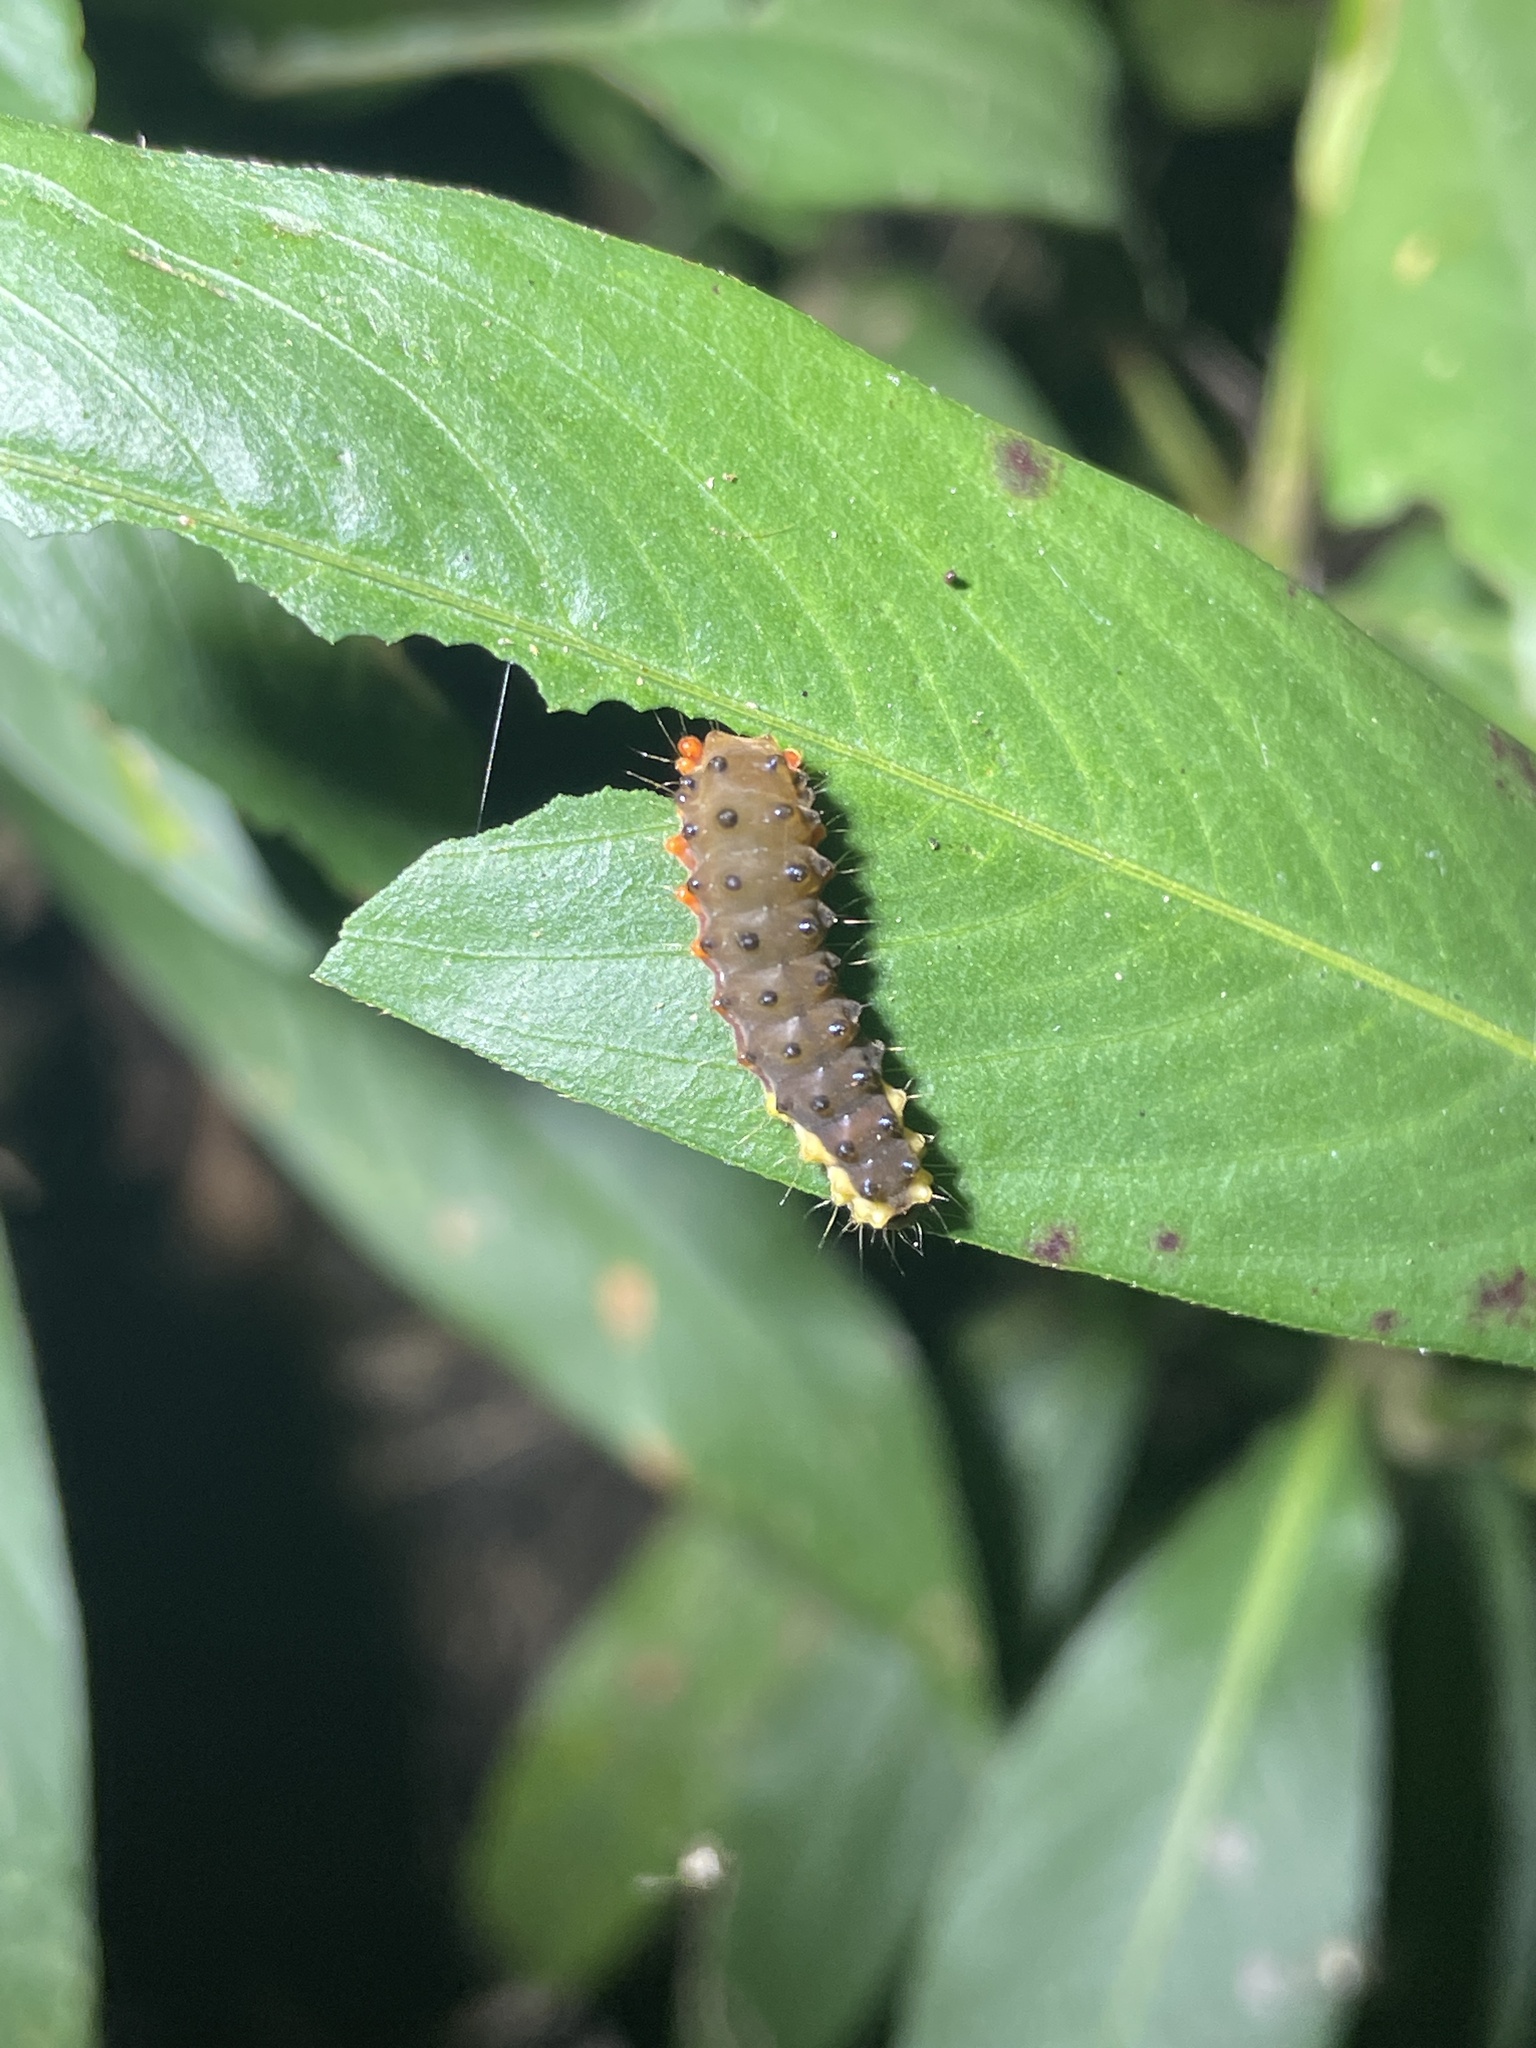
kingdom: Animalia
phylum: Arthropoda
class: Insecta
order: Lepidoptera
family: Zygaenidae
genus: Trypanophora
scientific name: Trypanophora semihyalina
